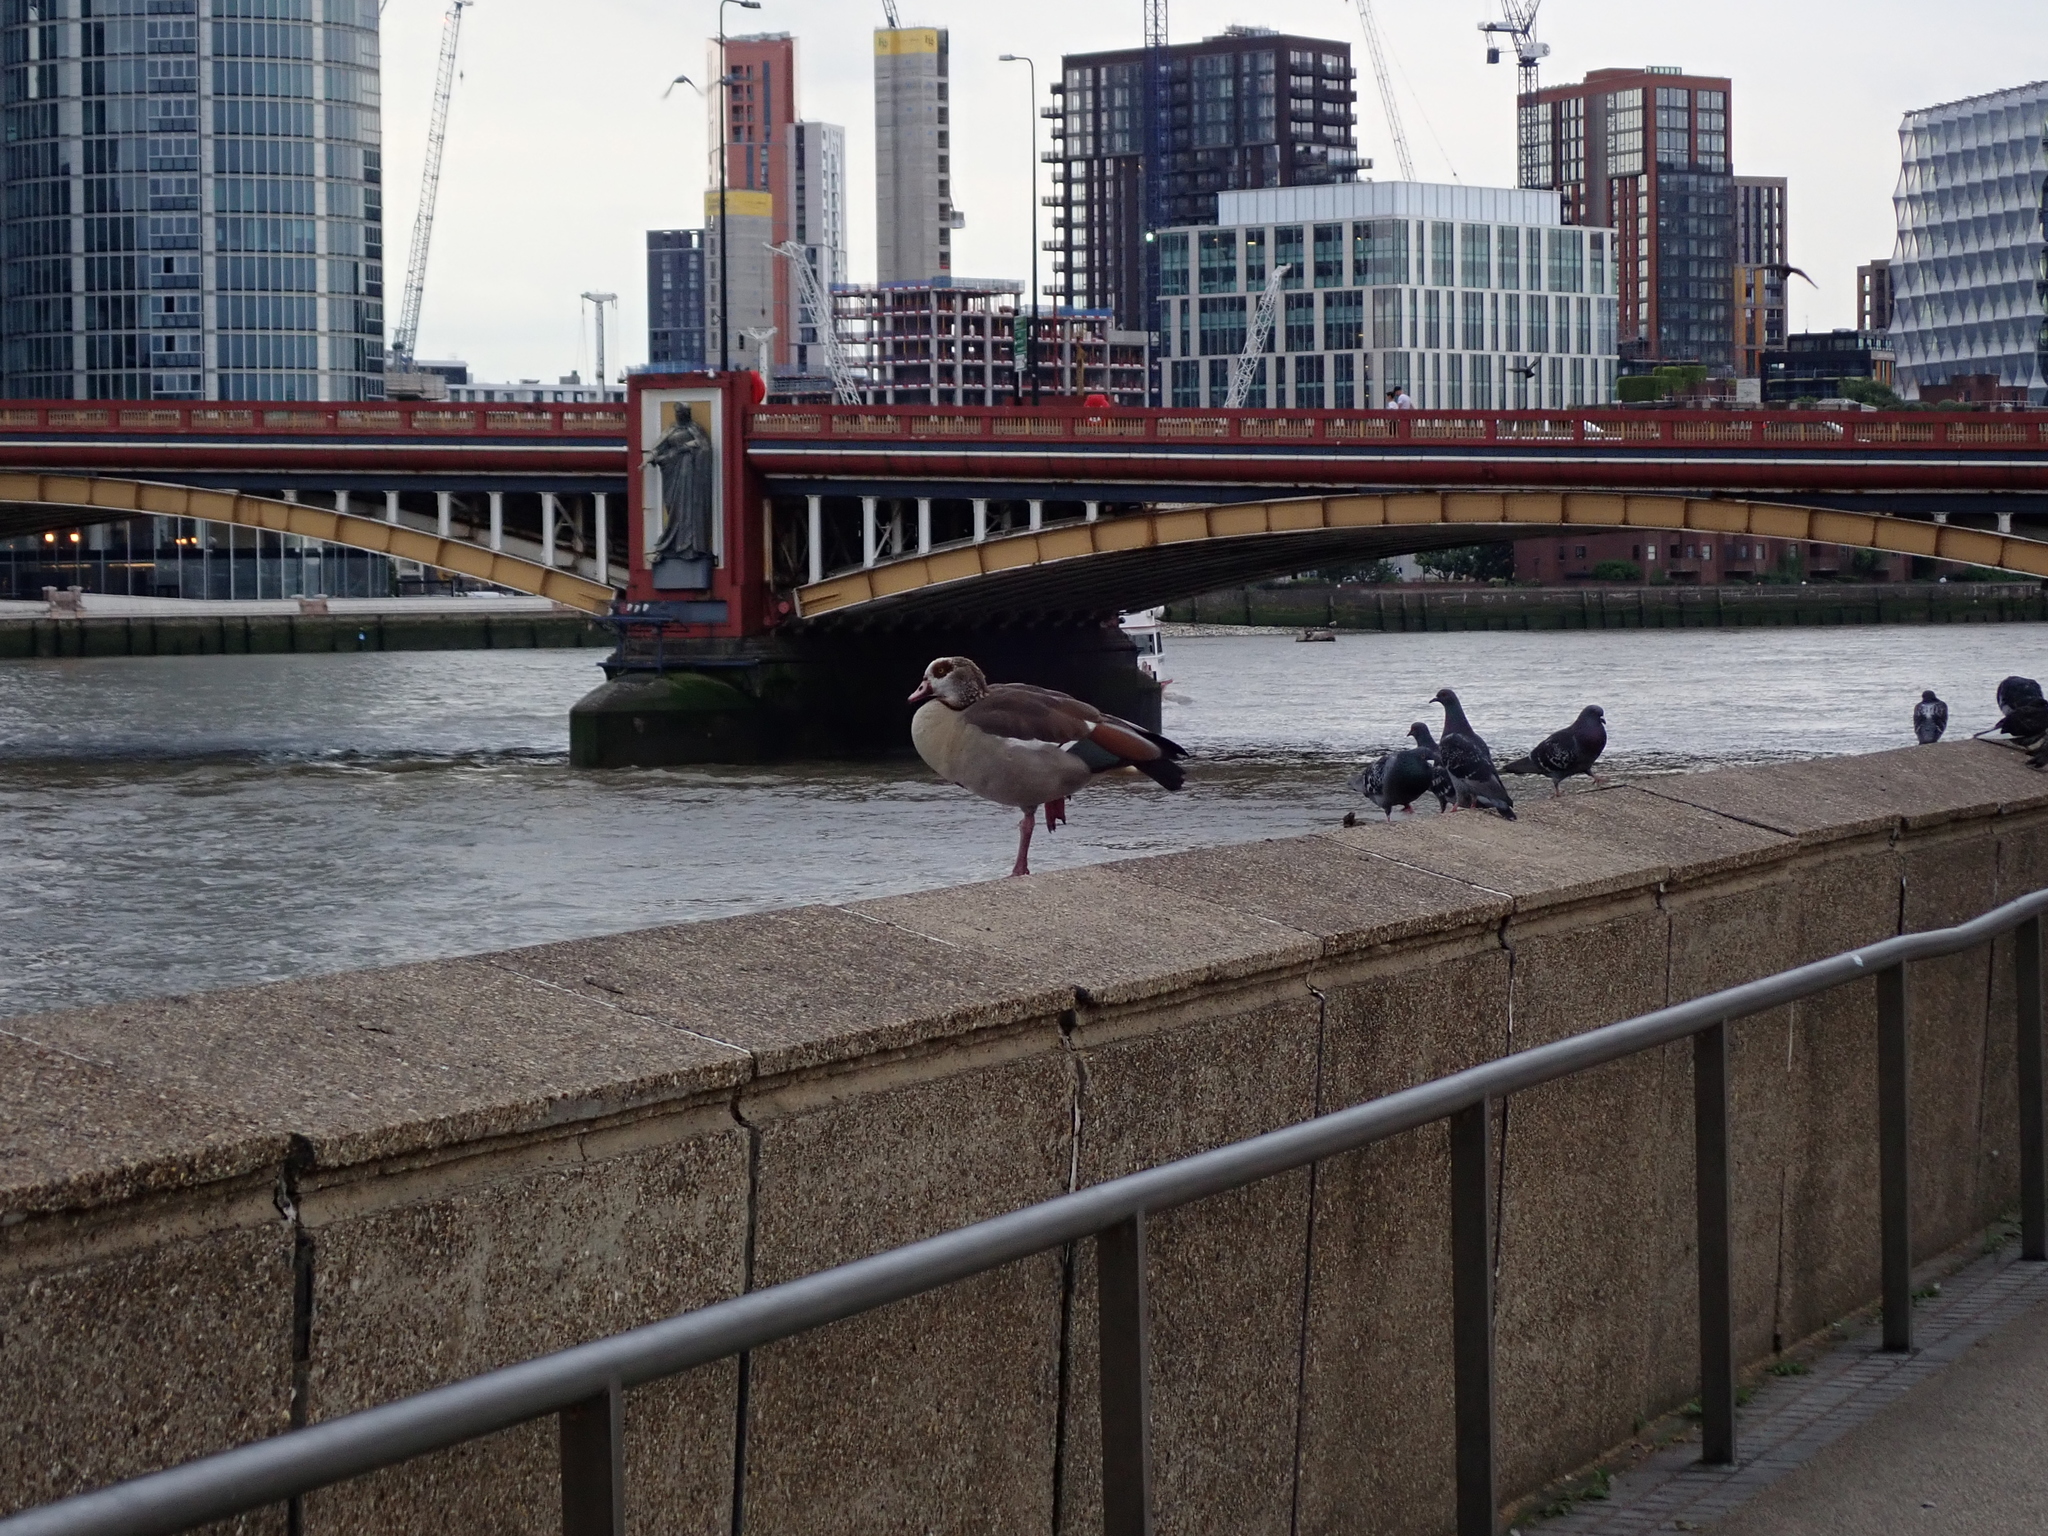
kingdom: Animalia
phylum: Chordata
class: Aves
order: Anseriformes
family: Anatidae
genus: Alopochen
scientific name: Alopochen aegyptiaca
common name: Egyptian goose
